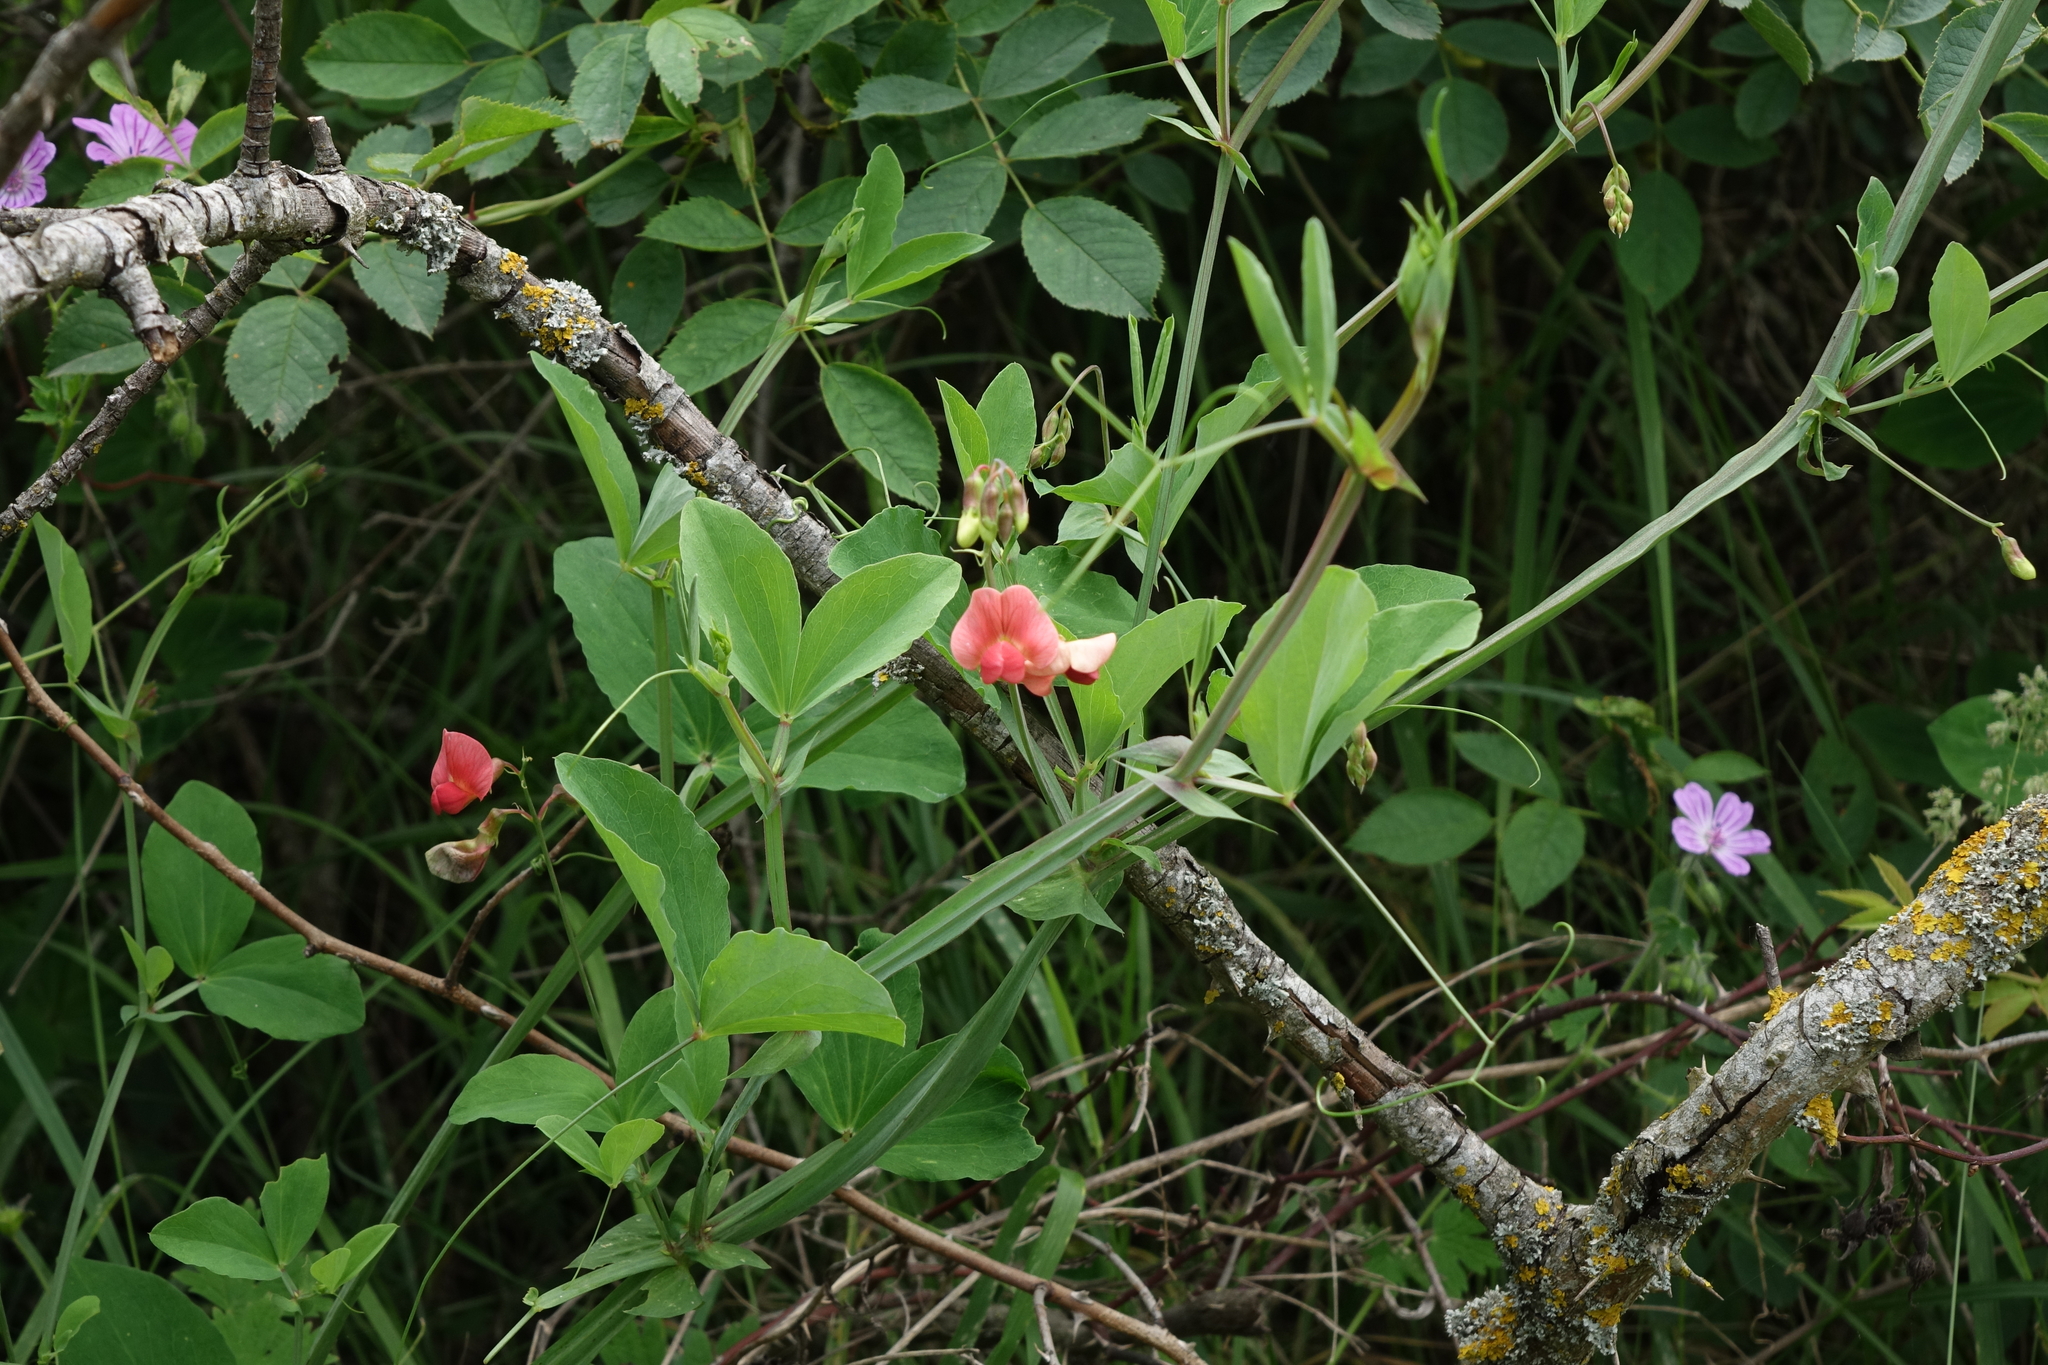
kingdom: Plantae
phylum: Tracheophyta
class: Magnoliopsida
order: Fabales
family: Fabaceae
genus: Lathyrus
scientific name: Lathyrus miniatus
